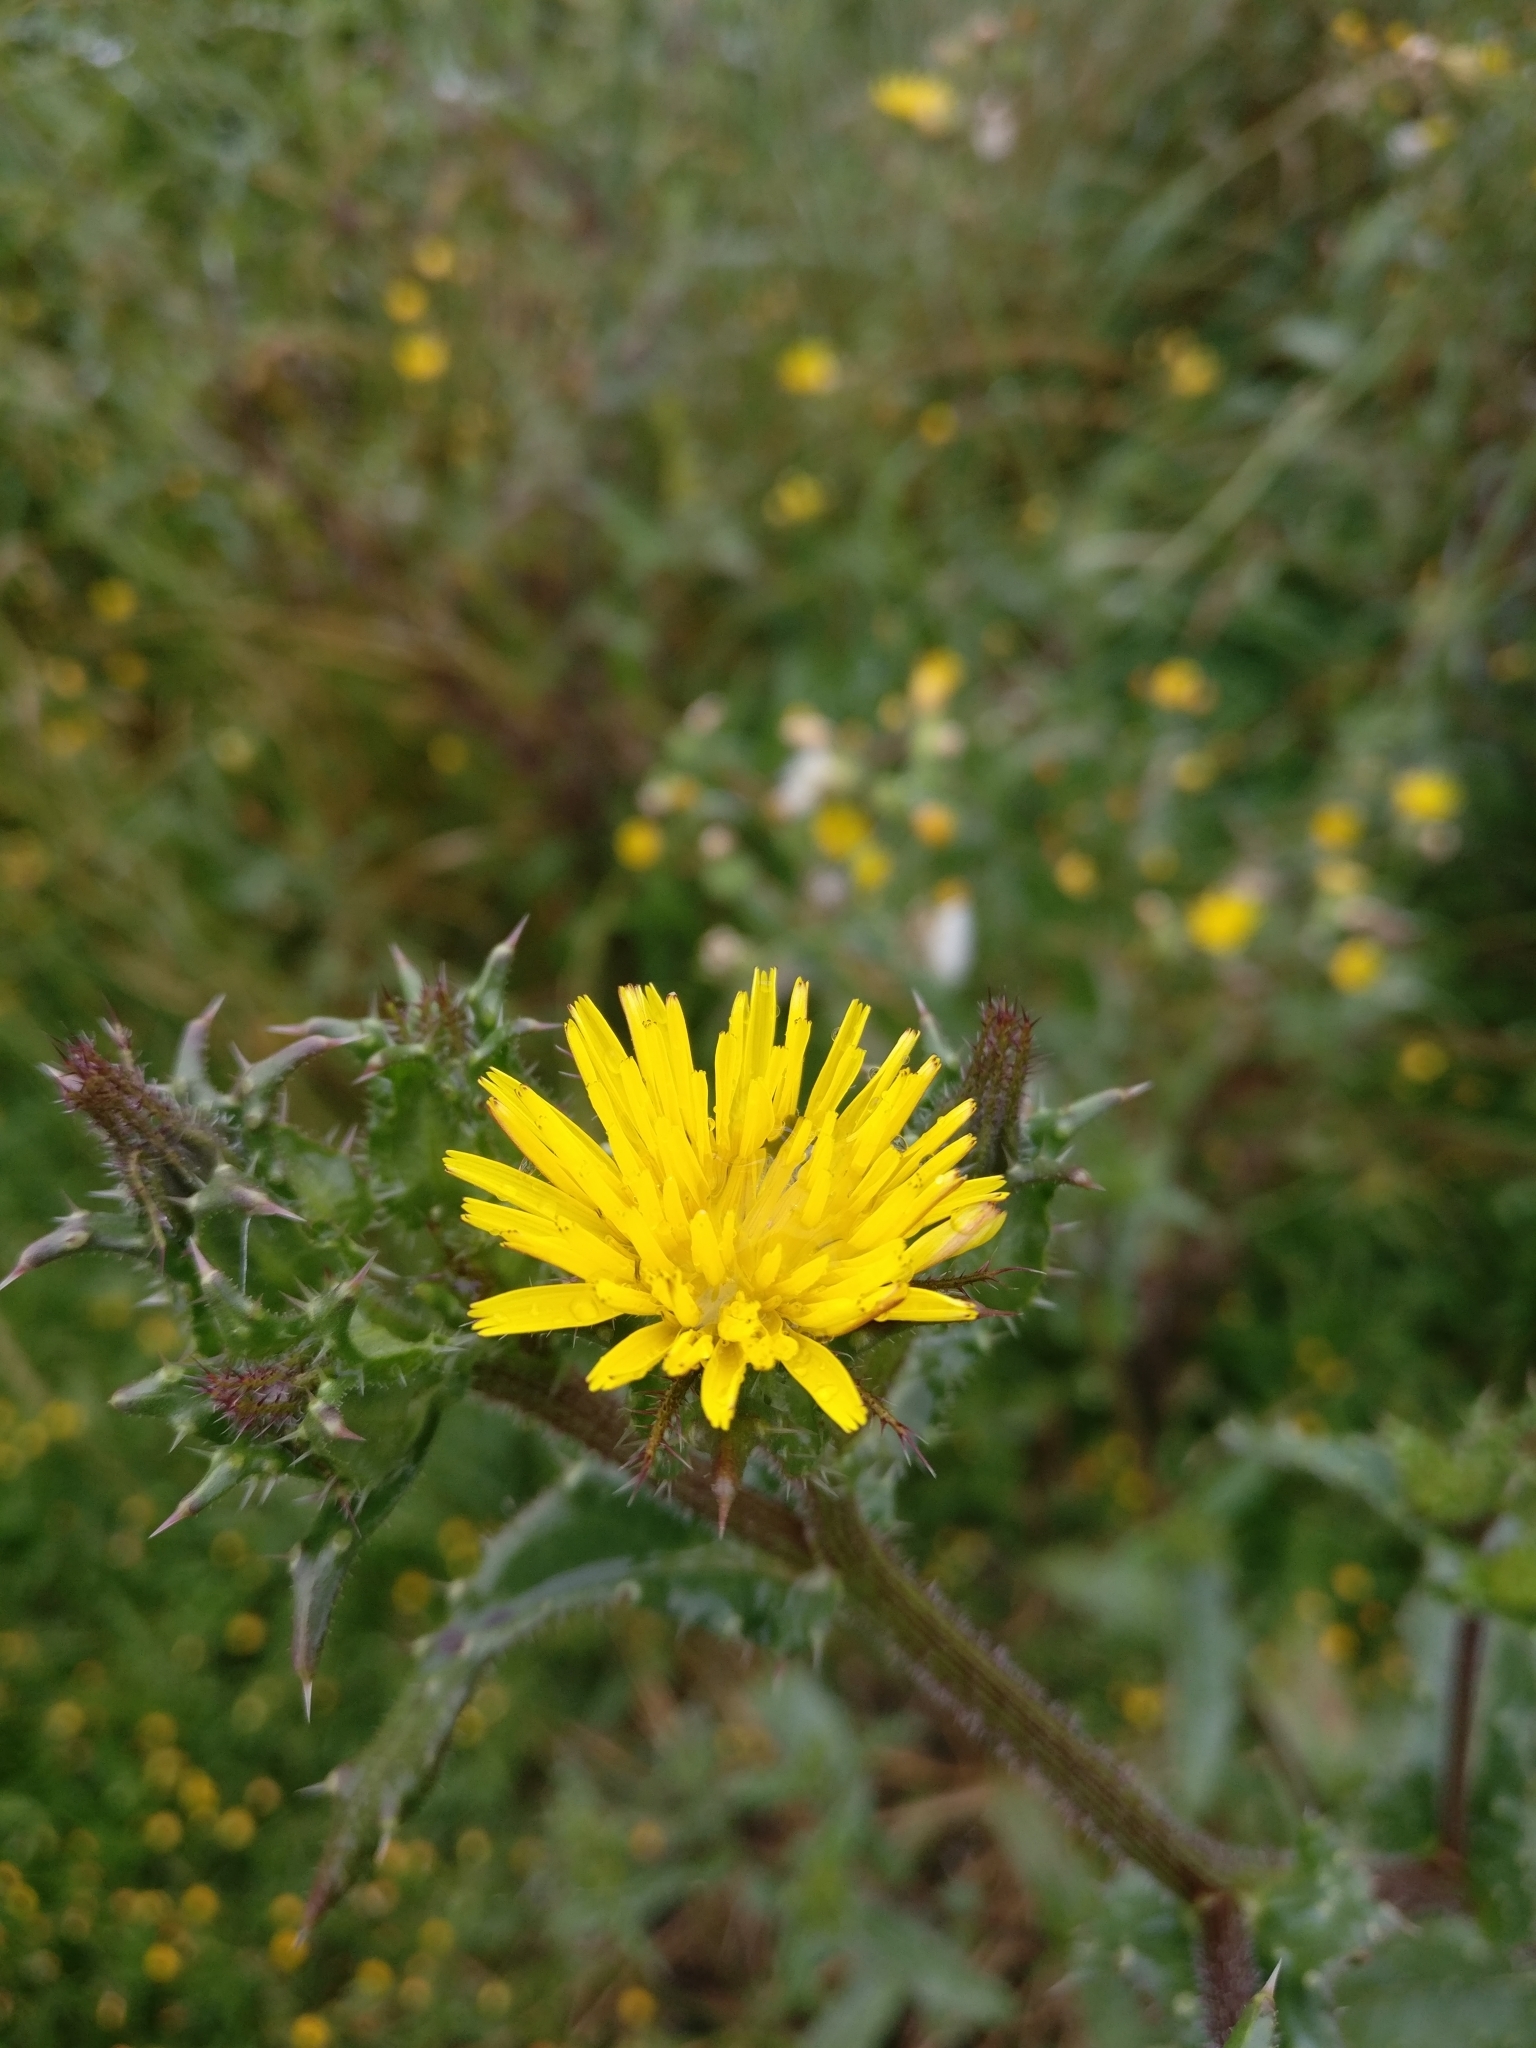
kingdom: Plantae
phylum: Tracheophyta
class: Magnoliopsida
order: Asterales
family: Asteraceae
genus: Helminthotheca
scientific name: Helminthotheca echioides
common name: Ox-tongue
